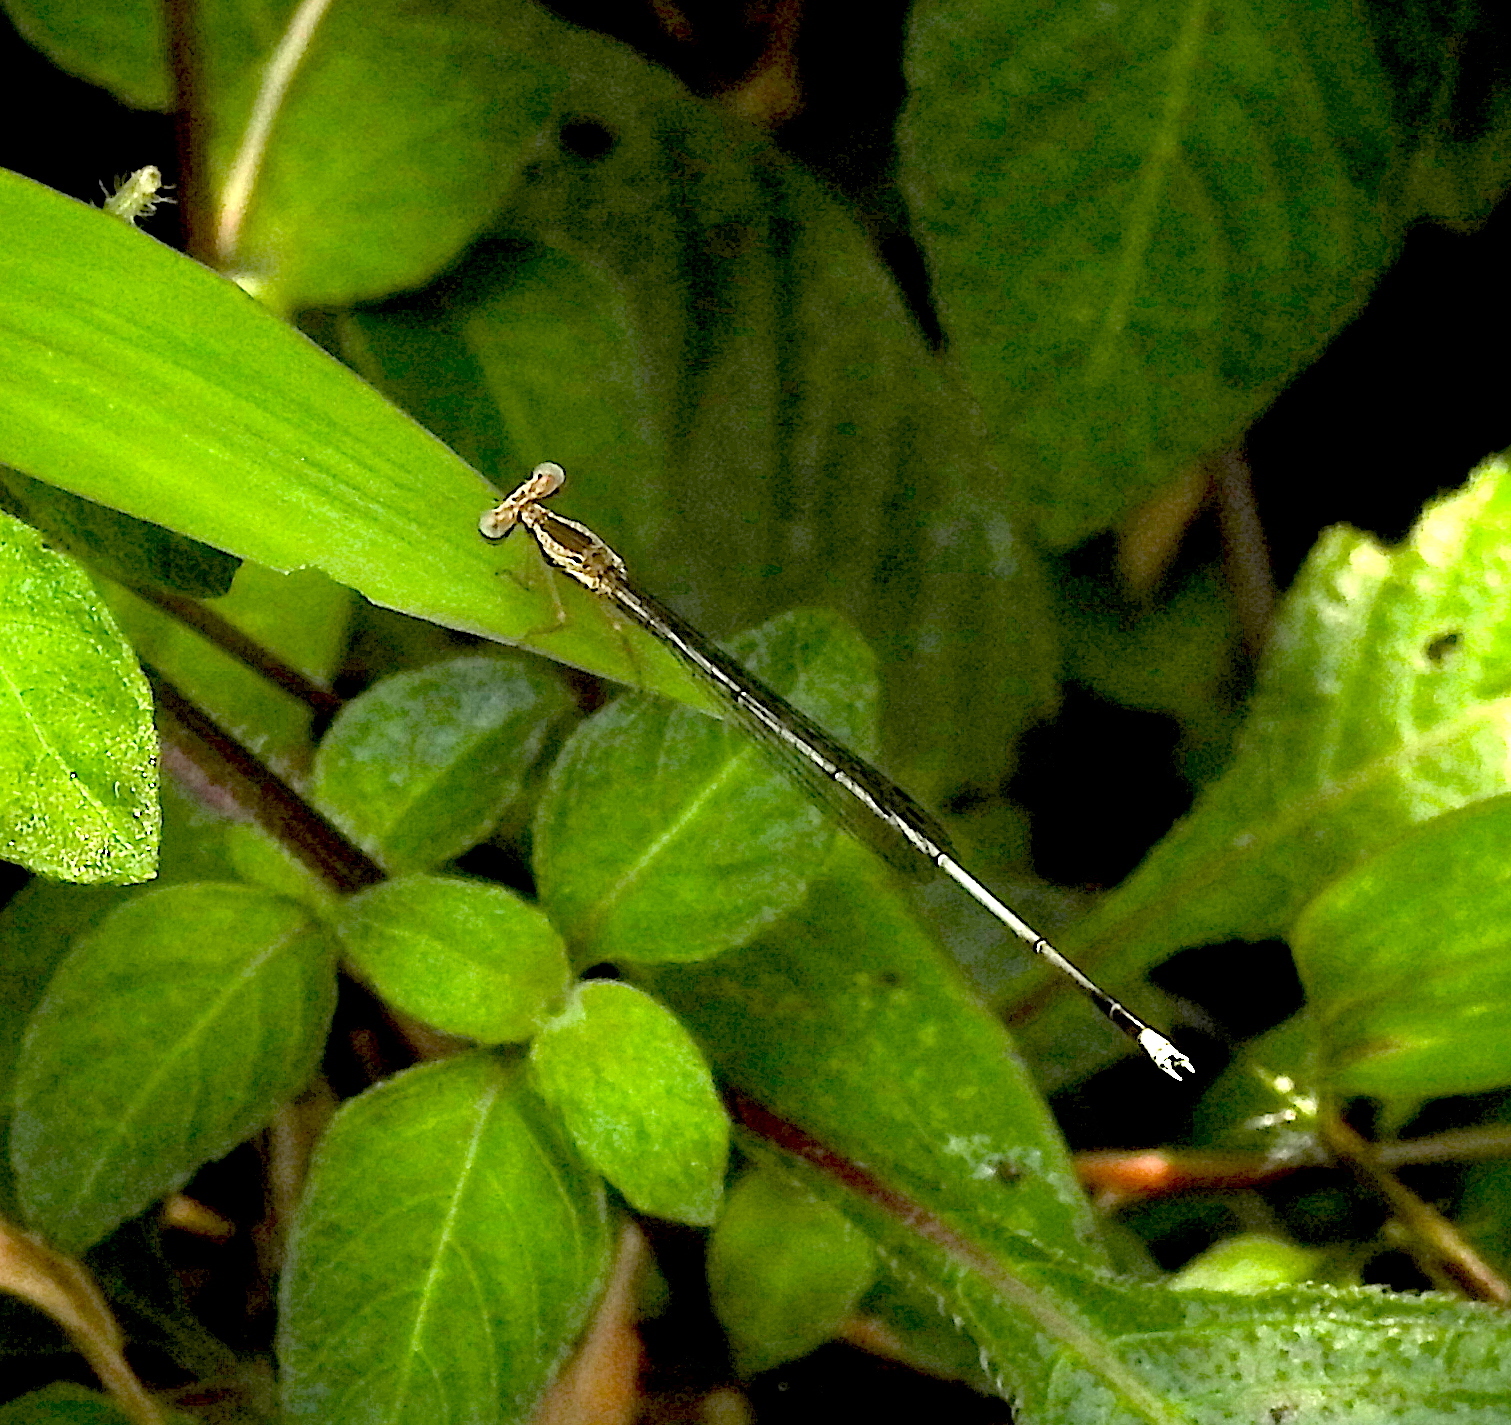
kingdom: Animalia
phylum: Arthropoda
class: Insecta
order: Odonata
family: Platycnemididae
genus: Copera
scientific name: Copera vittata
